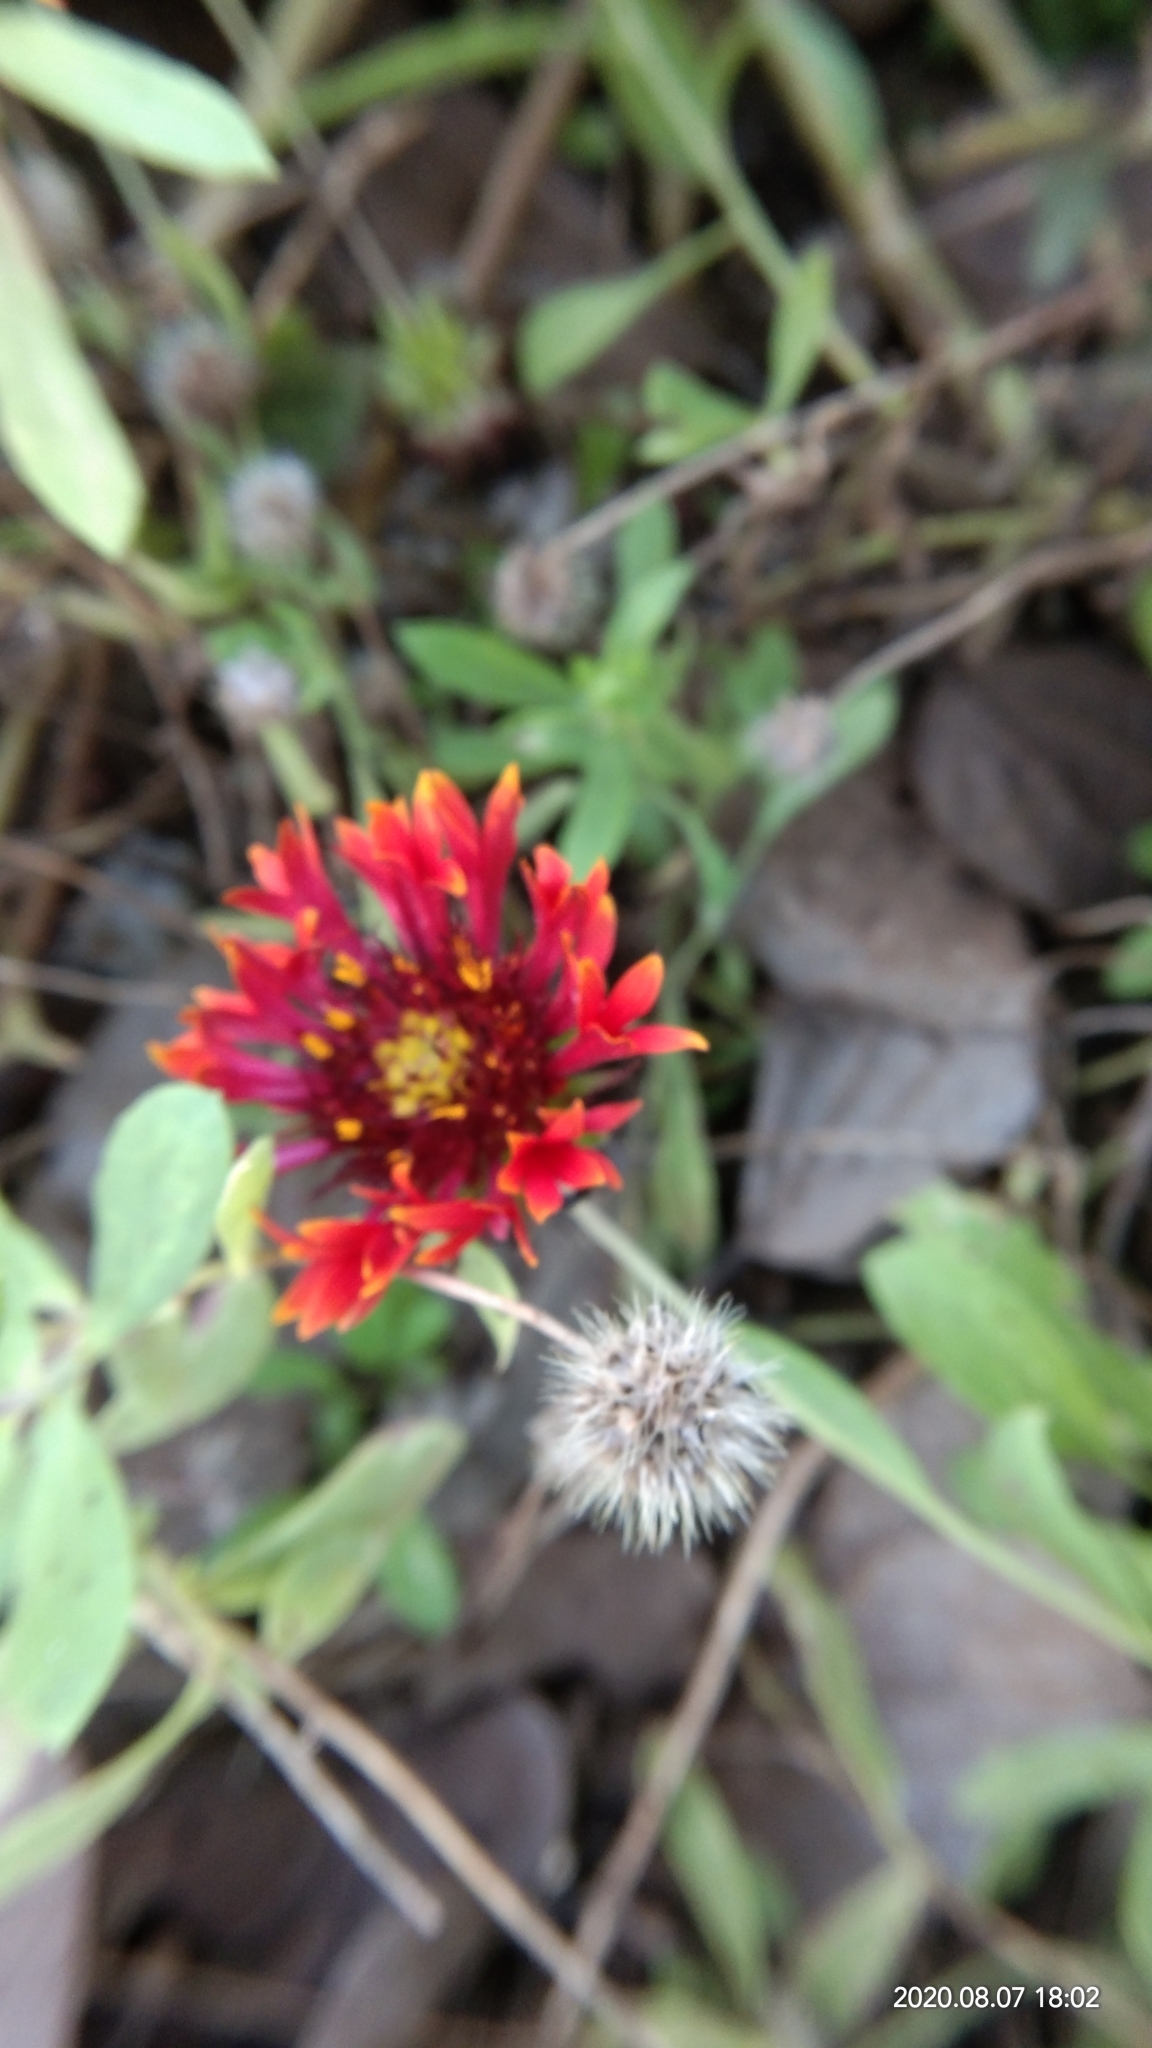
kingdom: Plantae
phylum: Tracheophyta
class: Magnoliopsida
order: Asterales
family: Asteraceae
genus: Gaillardia
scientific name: Gaillardia pulchella
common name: Firewheel
